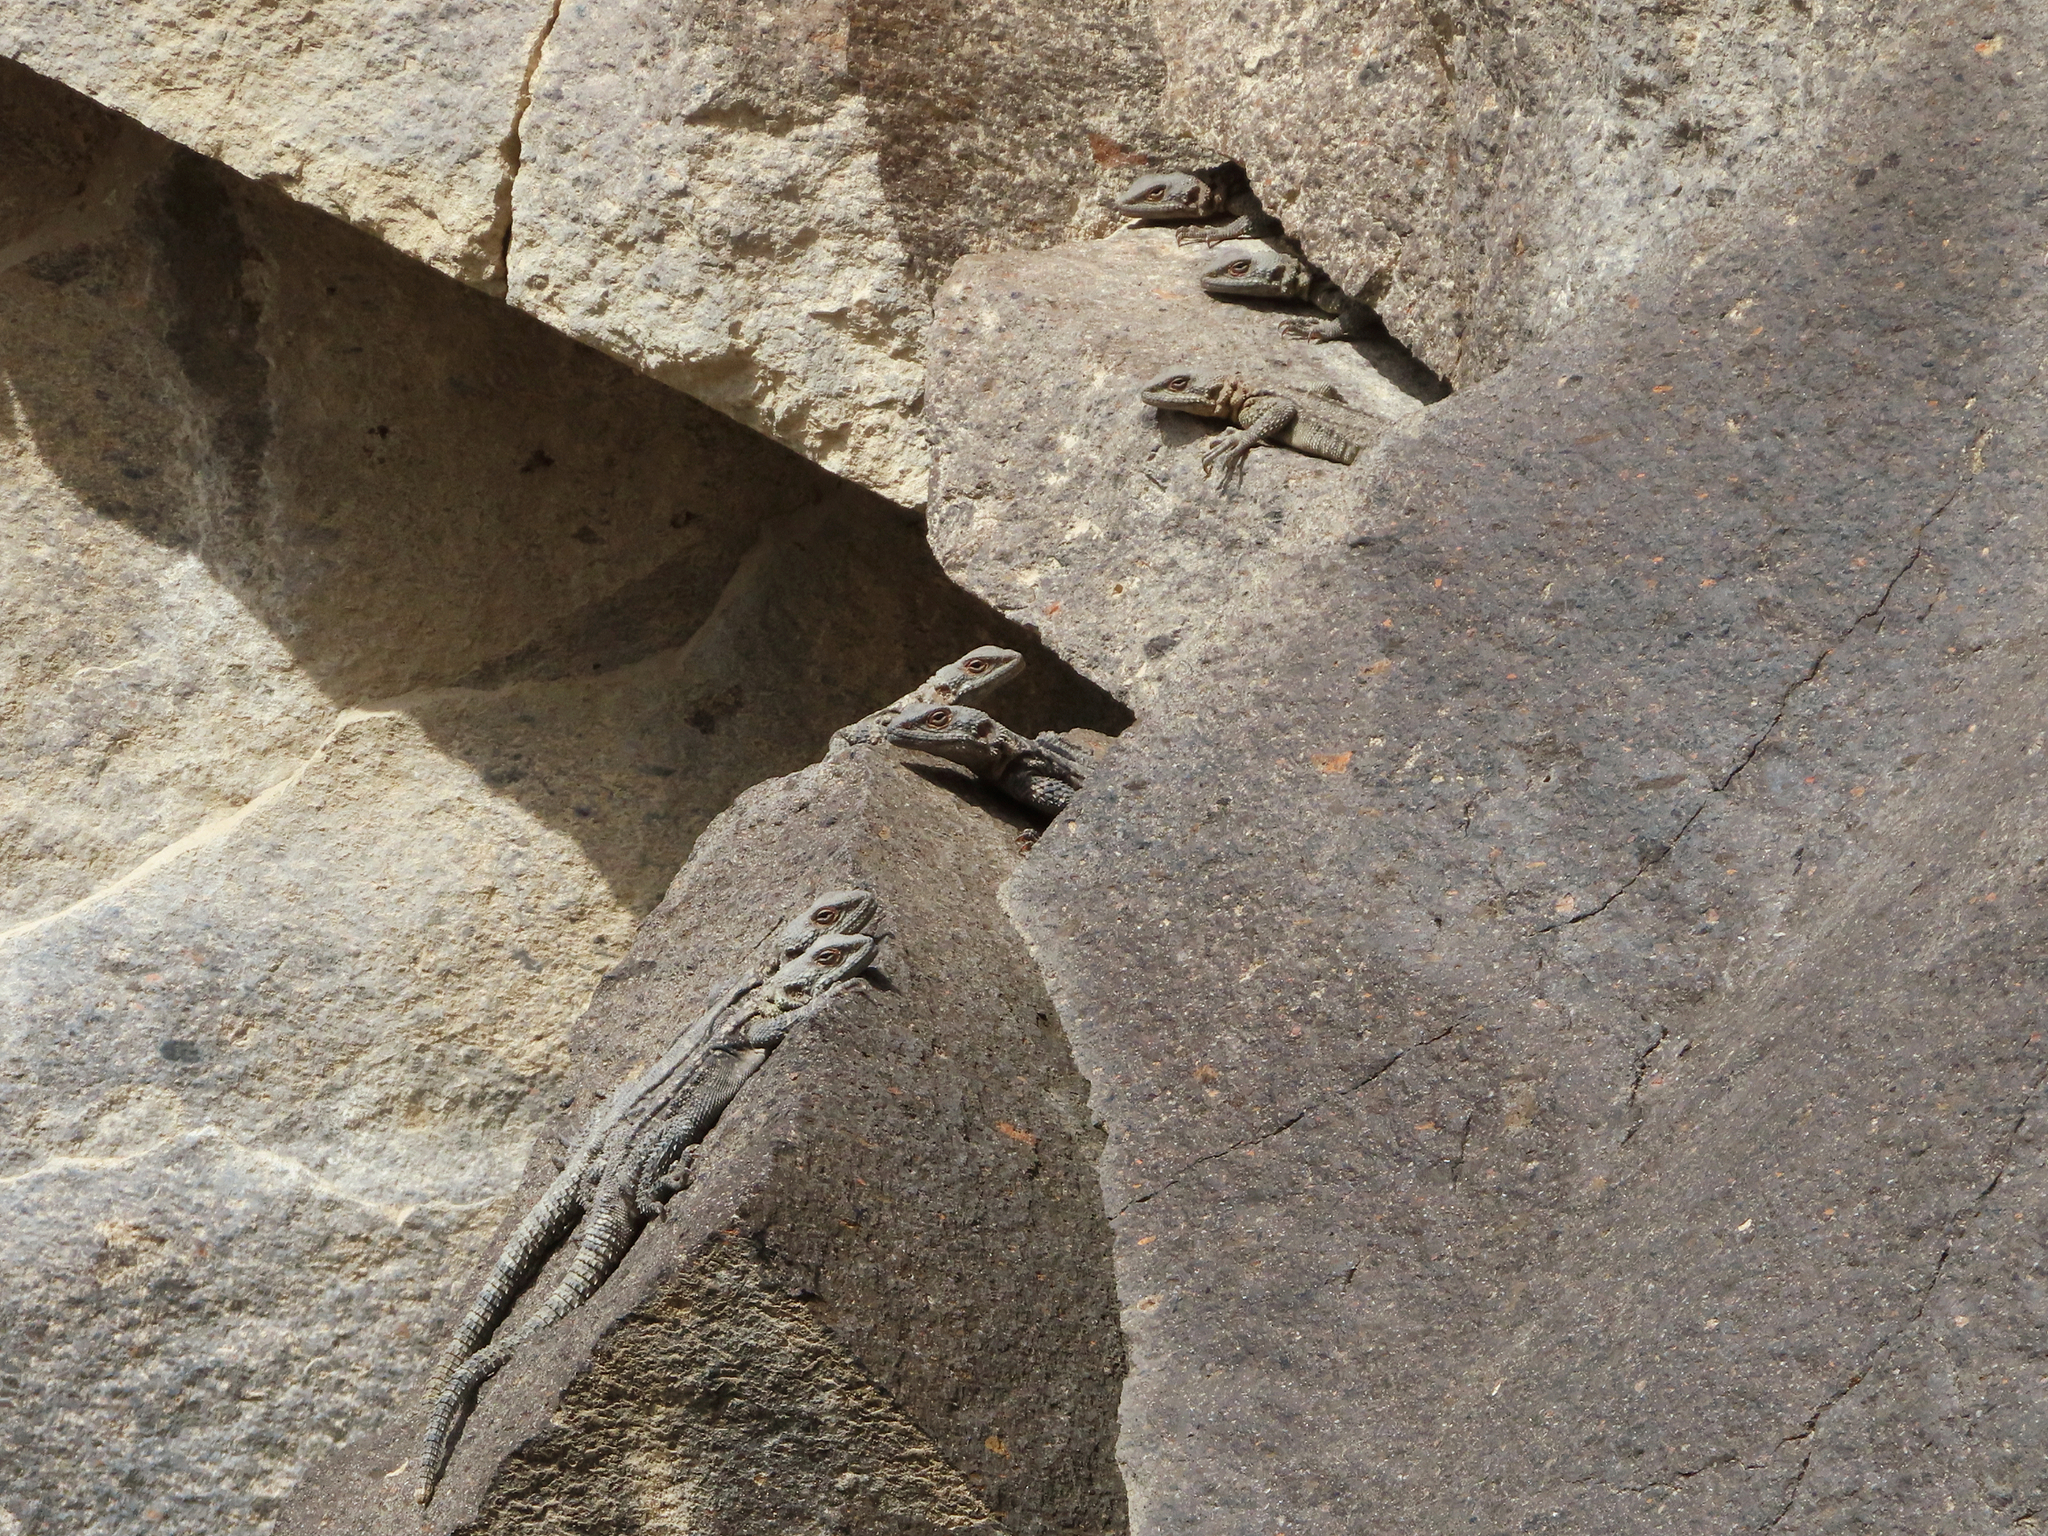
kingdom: Animalia
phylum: Chordata
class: Squamata
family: Agamidae
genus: Paralaudakia
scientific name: Paralaudakia caucasia
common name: Caucasian agama
